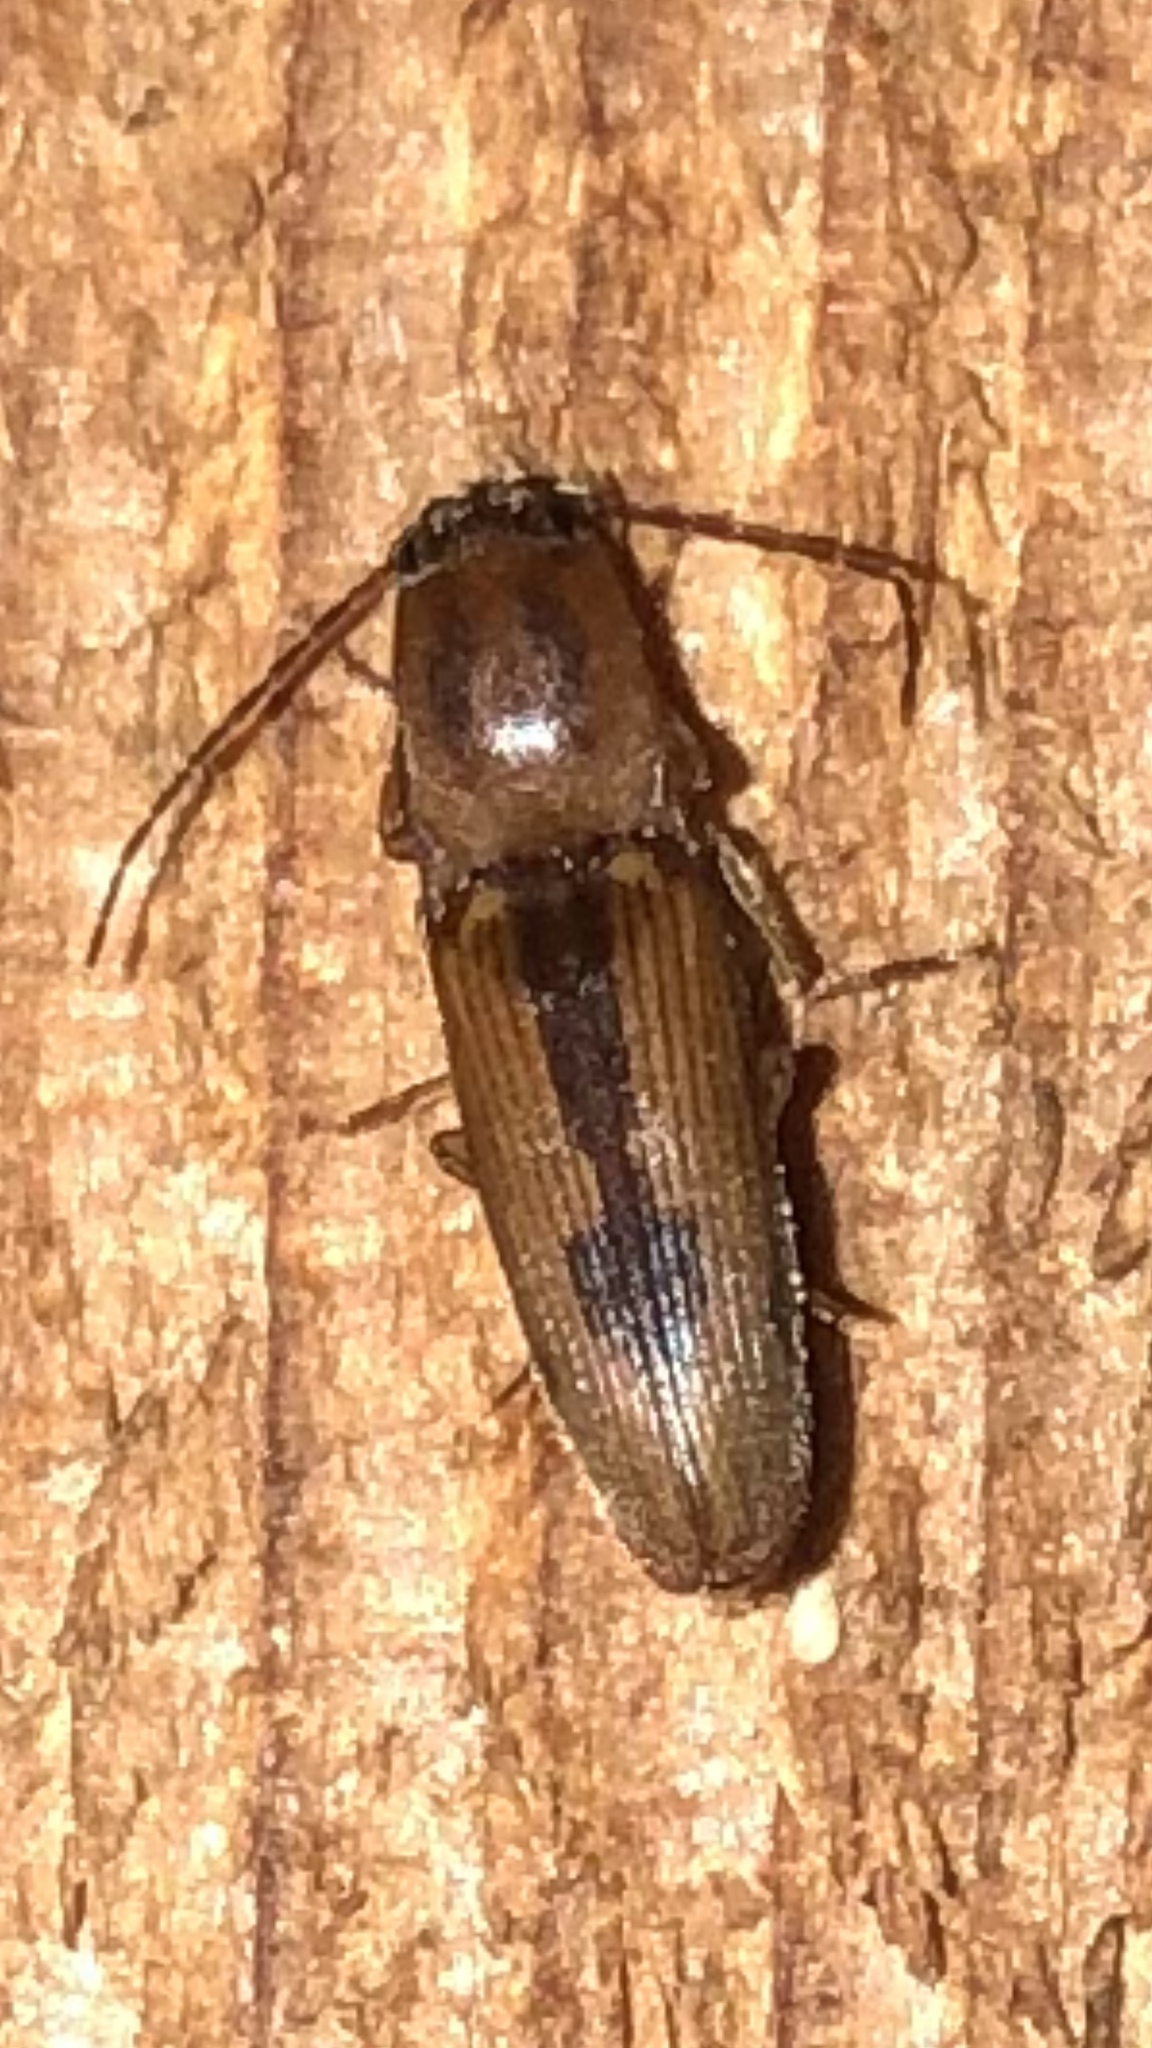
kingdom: Animalia
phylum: Arthropoda
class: Insecta
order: Coleoptera
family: Elateridae
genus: Monocrepidius
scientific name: Monocrepidius
